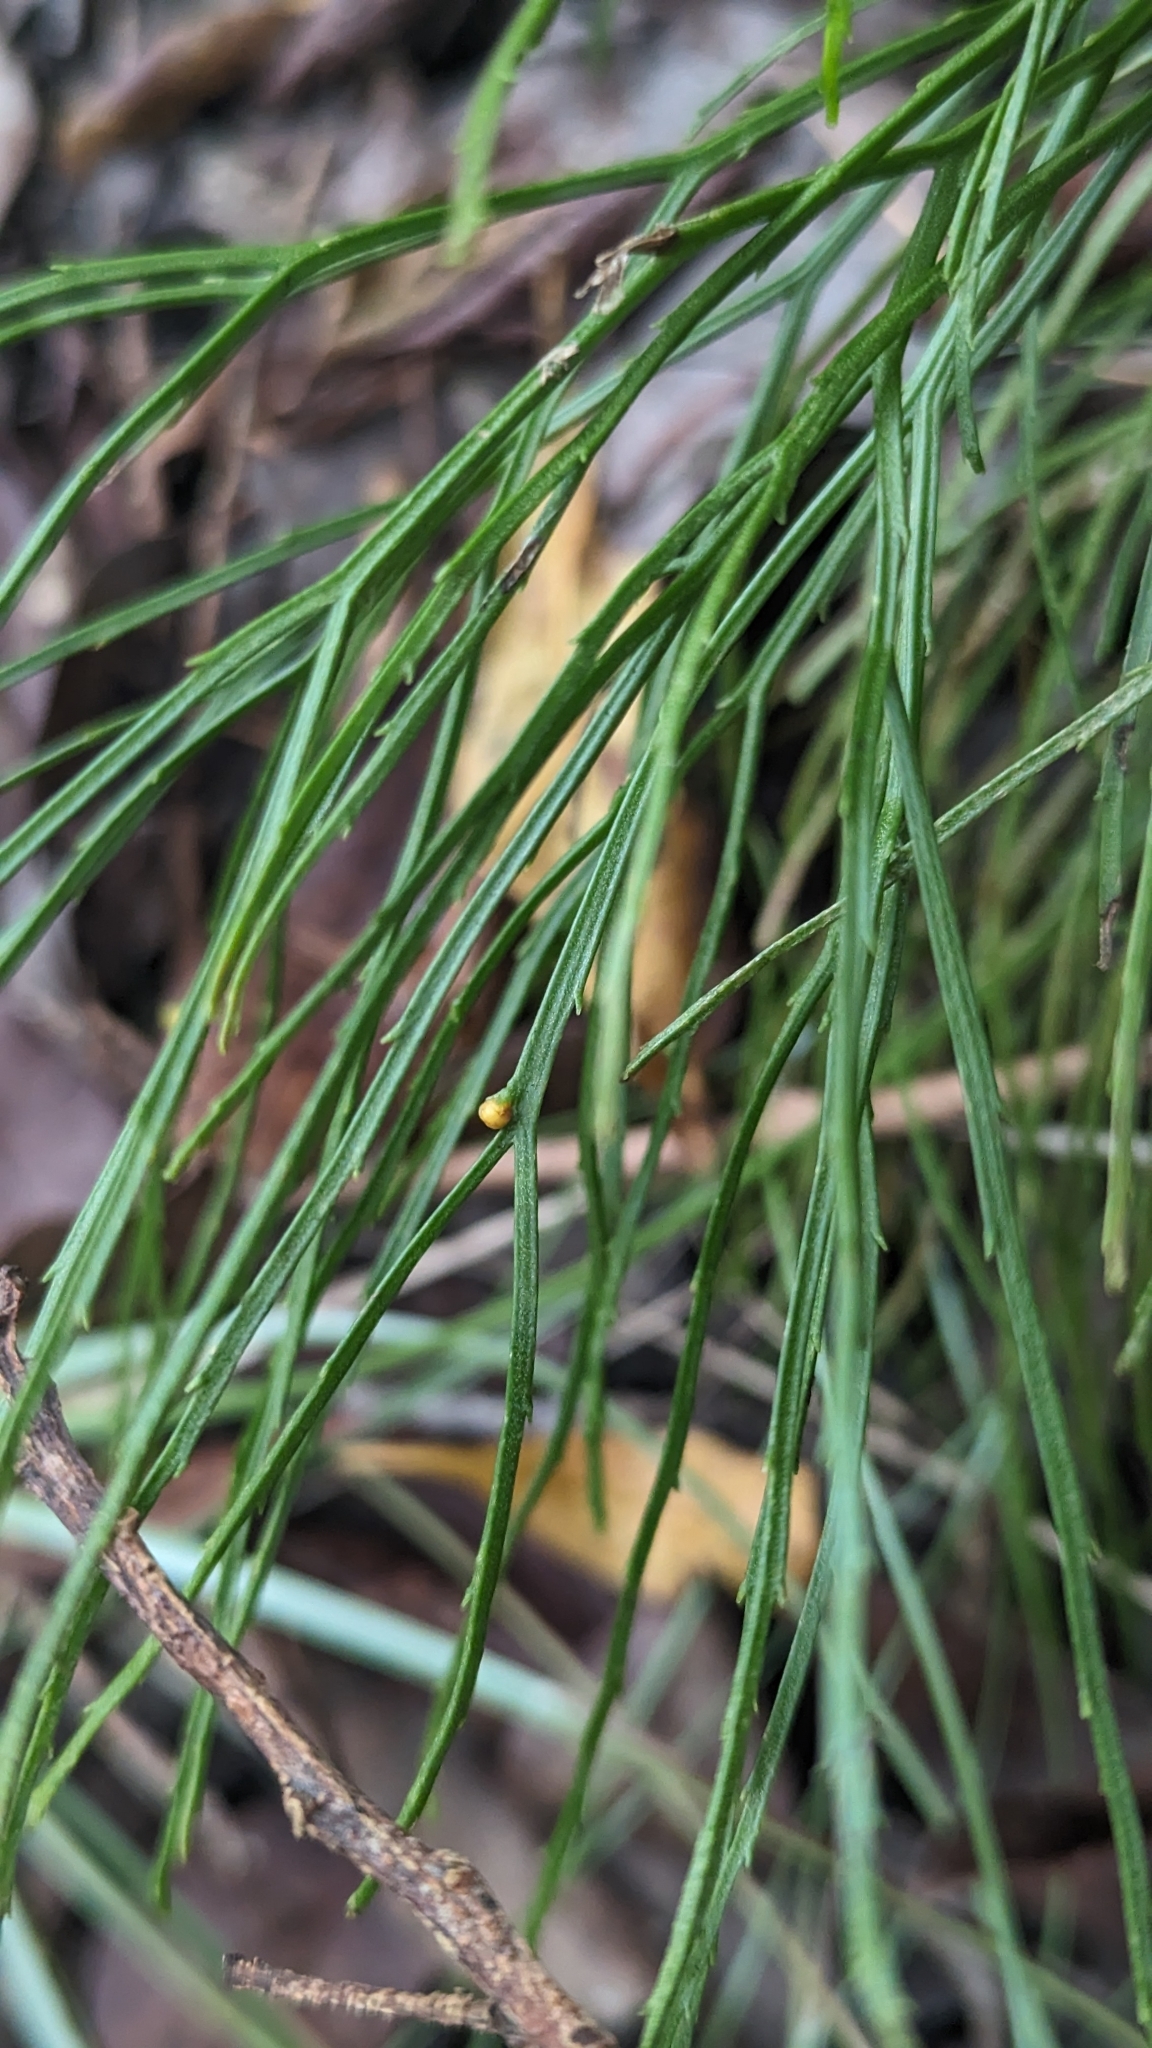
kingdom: Plantae
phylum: Tracheophyta
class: Polypodiopsida
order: Psilotales
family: Psilotaceae
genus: Psilotum
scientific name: Psilotum nudum
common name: Skeleton fork fern
